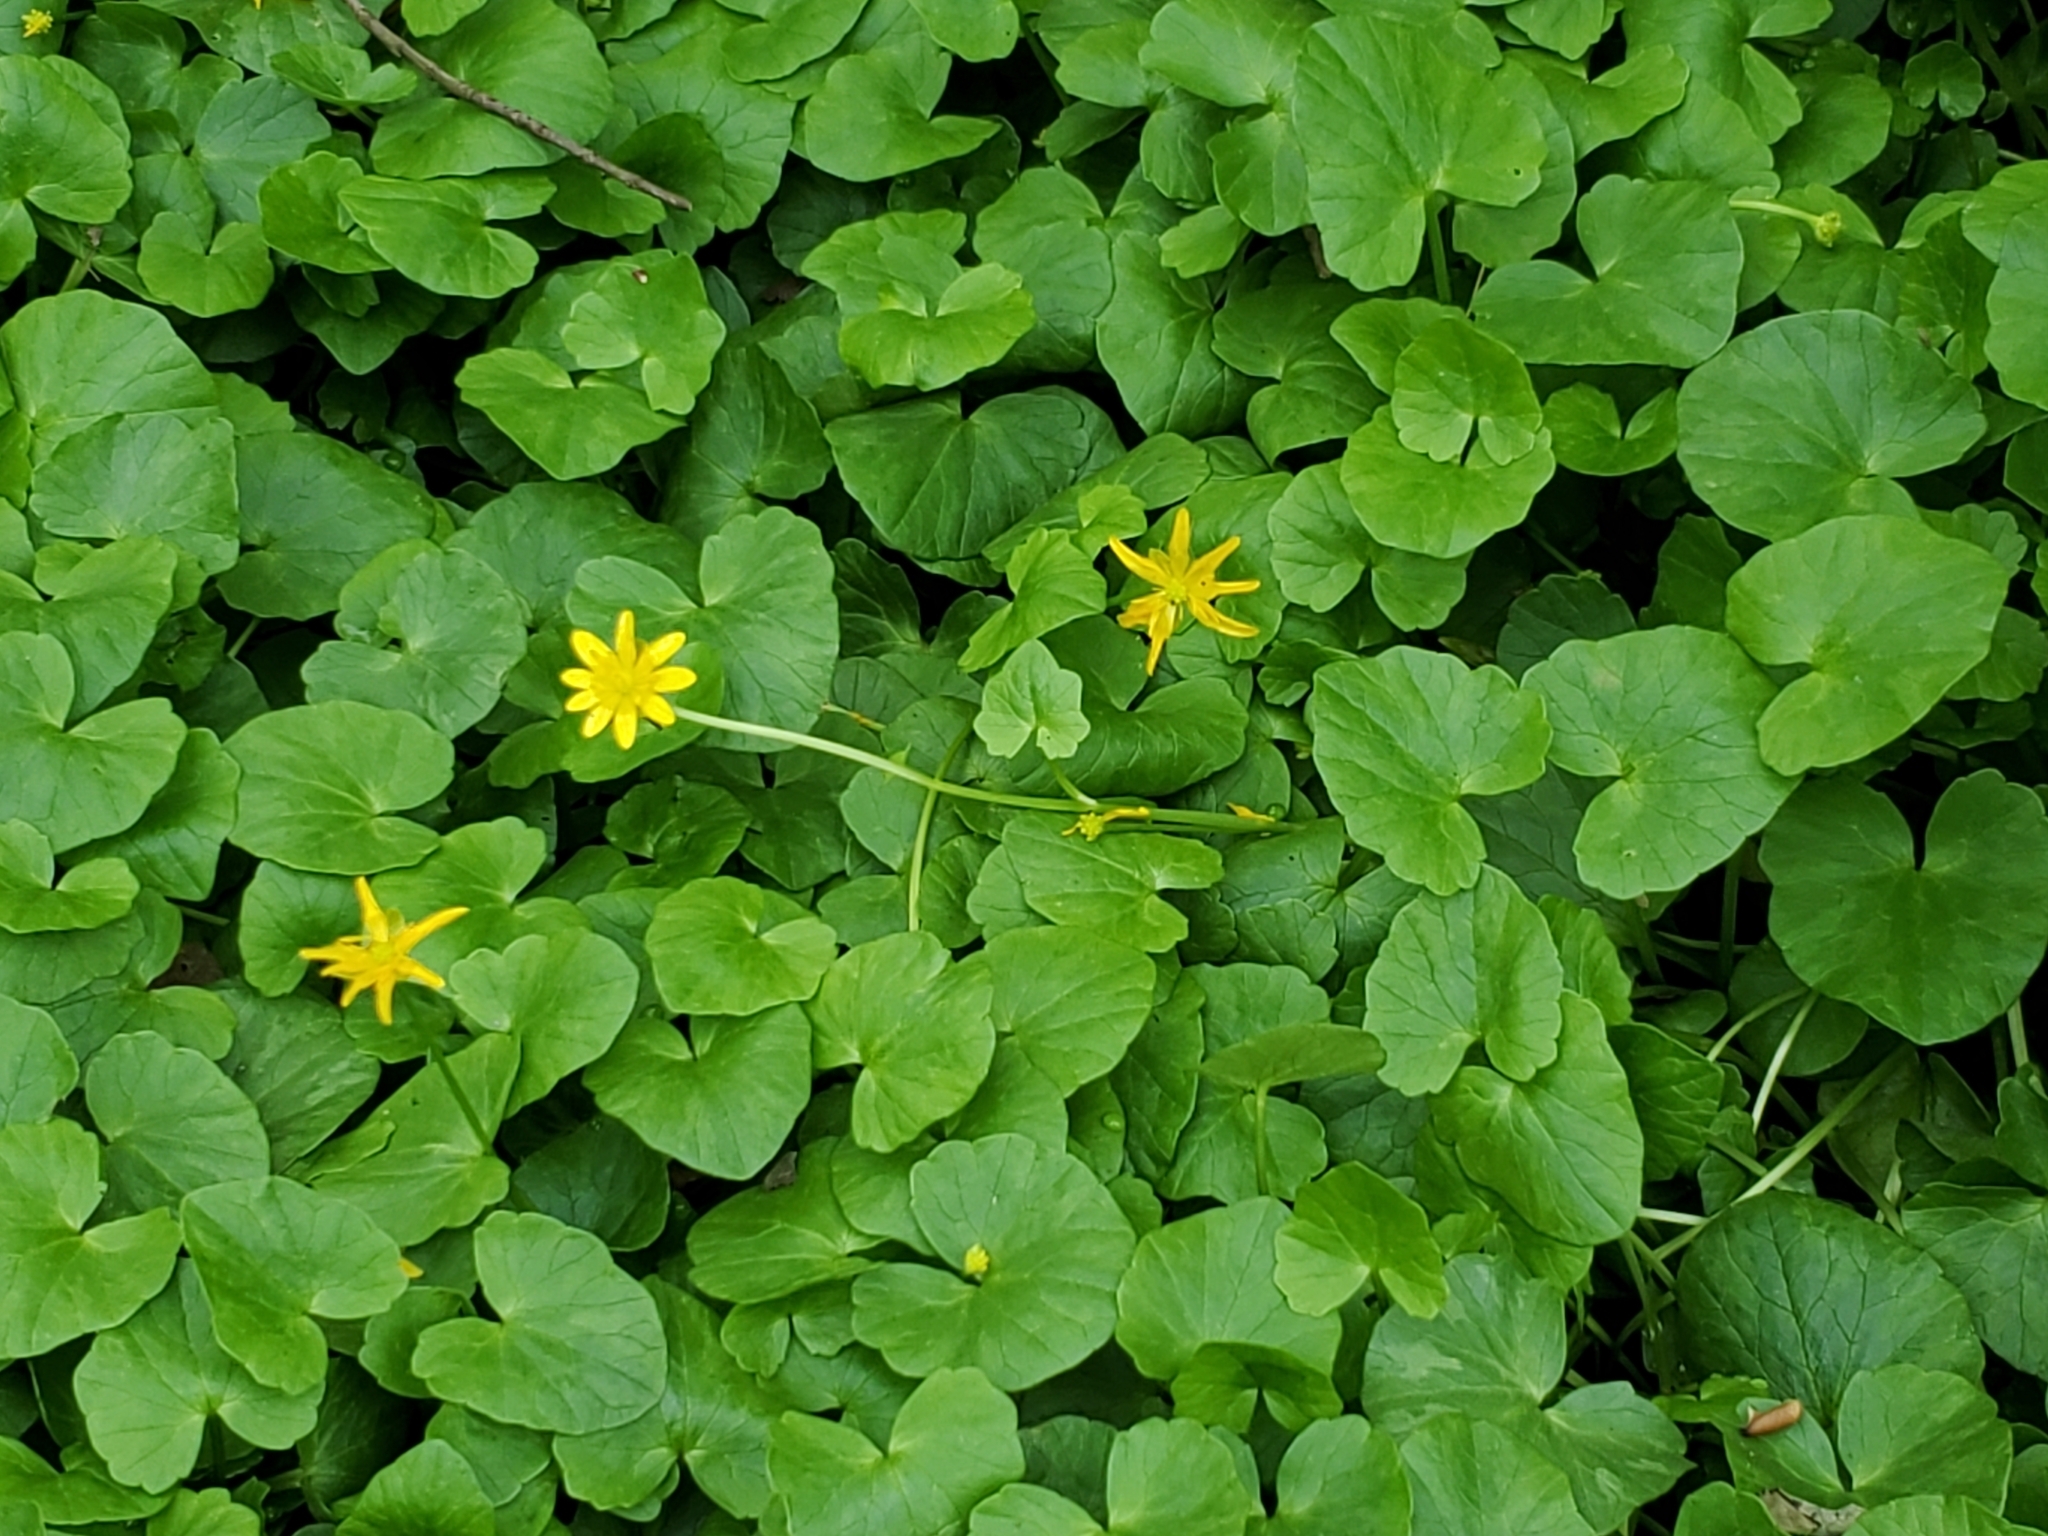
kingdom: Plantae
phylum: Tracheophyta
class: Magnoliopsida
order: Ranunculales
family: Ranunculaceae
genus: Ficaria
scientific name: Ficaria verna
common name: Lesser celandine
